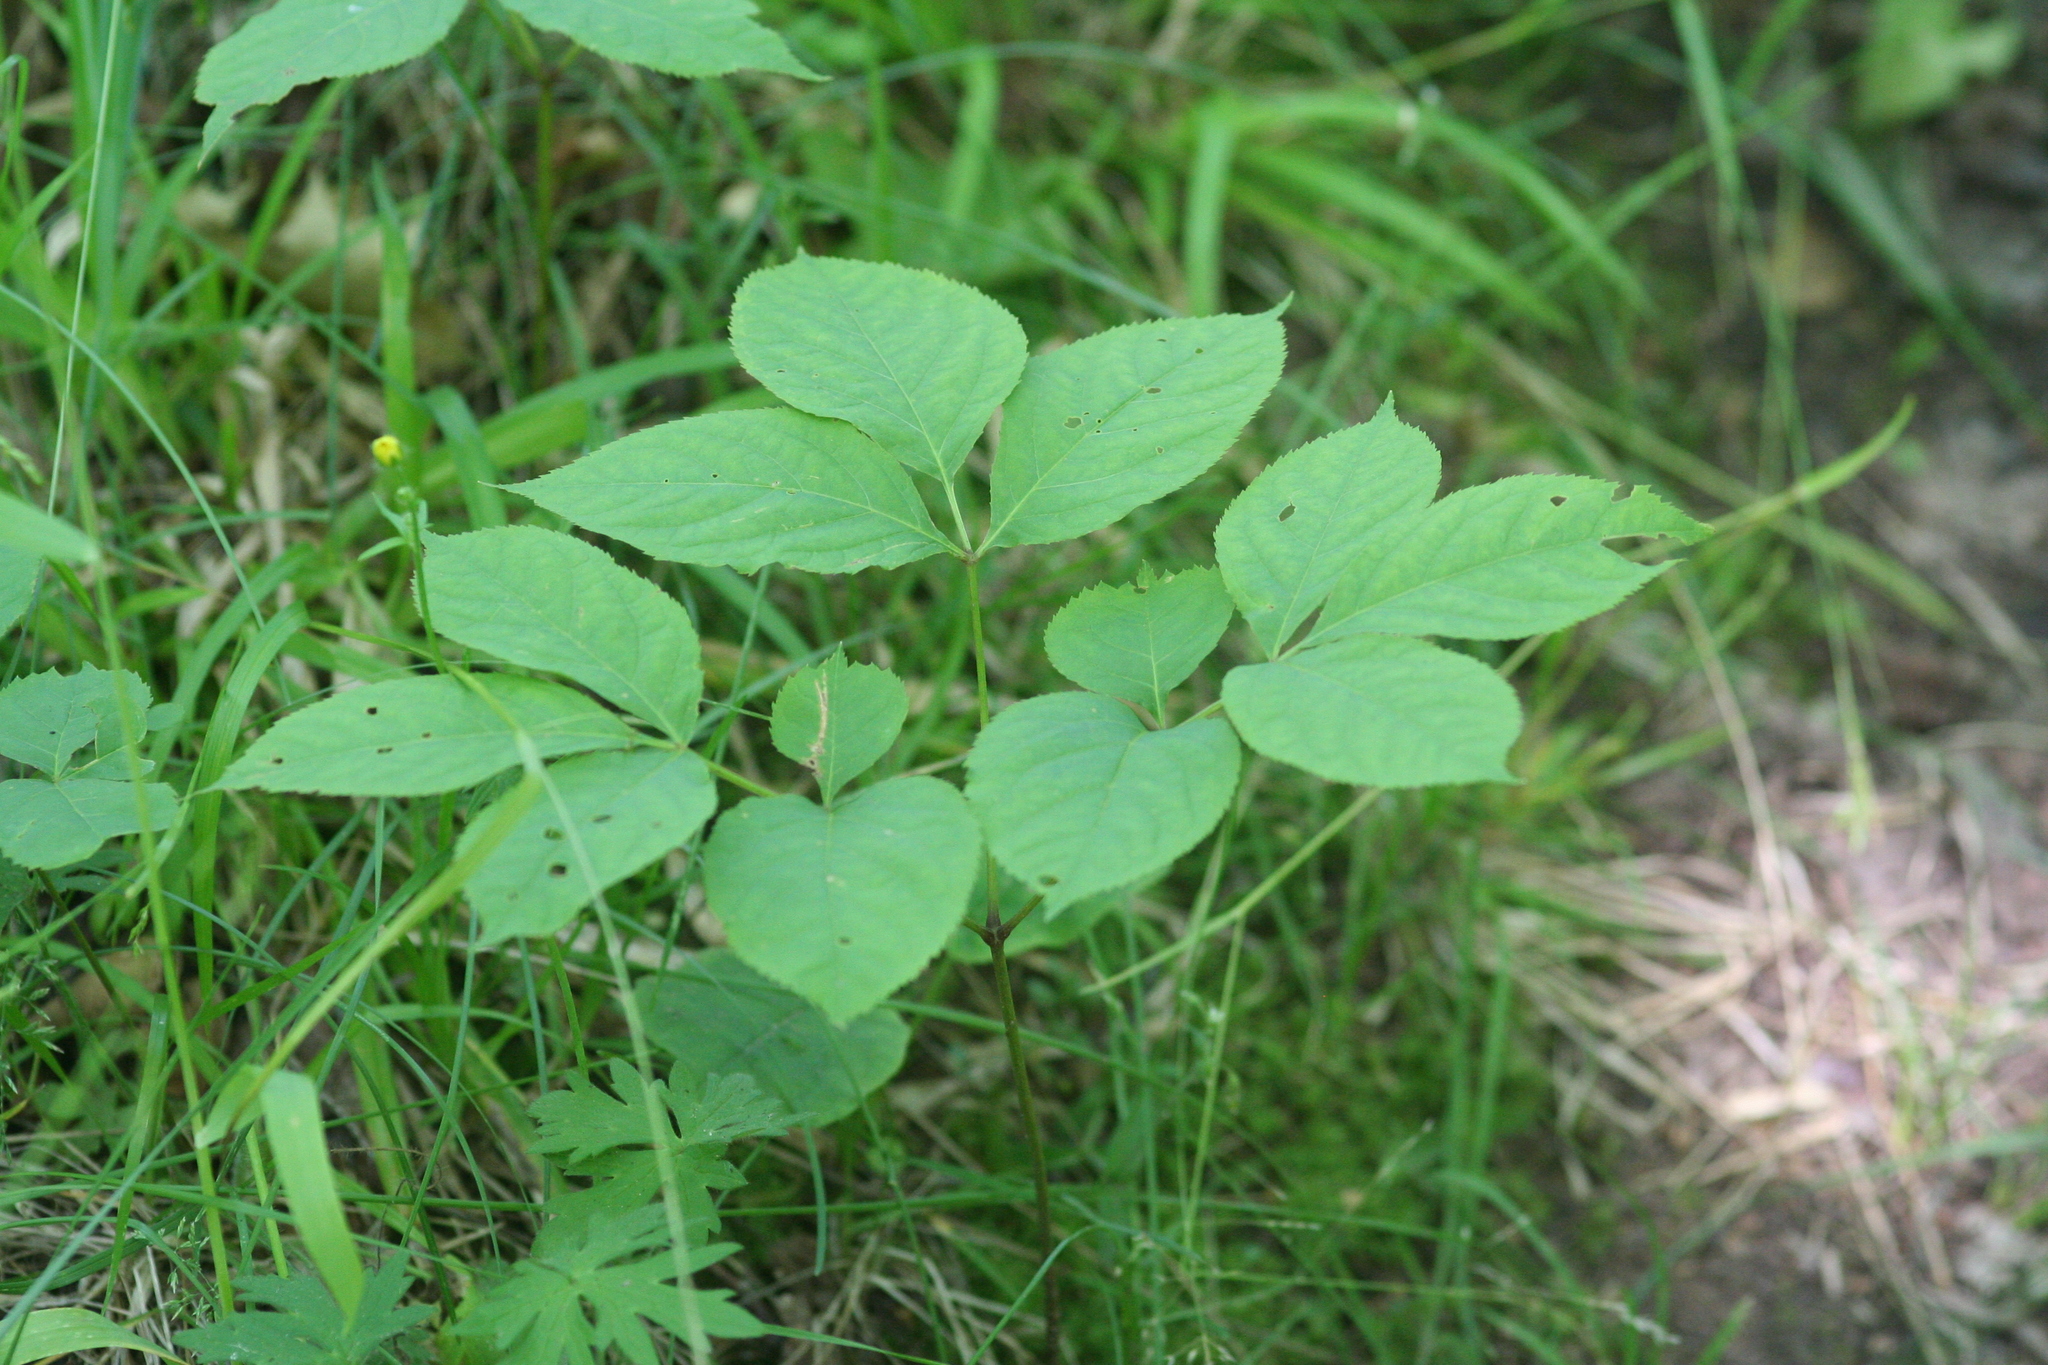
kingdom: Plantae
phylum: Tracheophyta
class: Magnoliopsida
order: Apiales
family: Araliaceae
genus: Aralia
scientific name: Aralia nudicaulis
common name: Wild sarsaparilla
